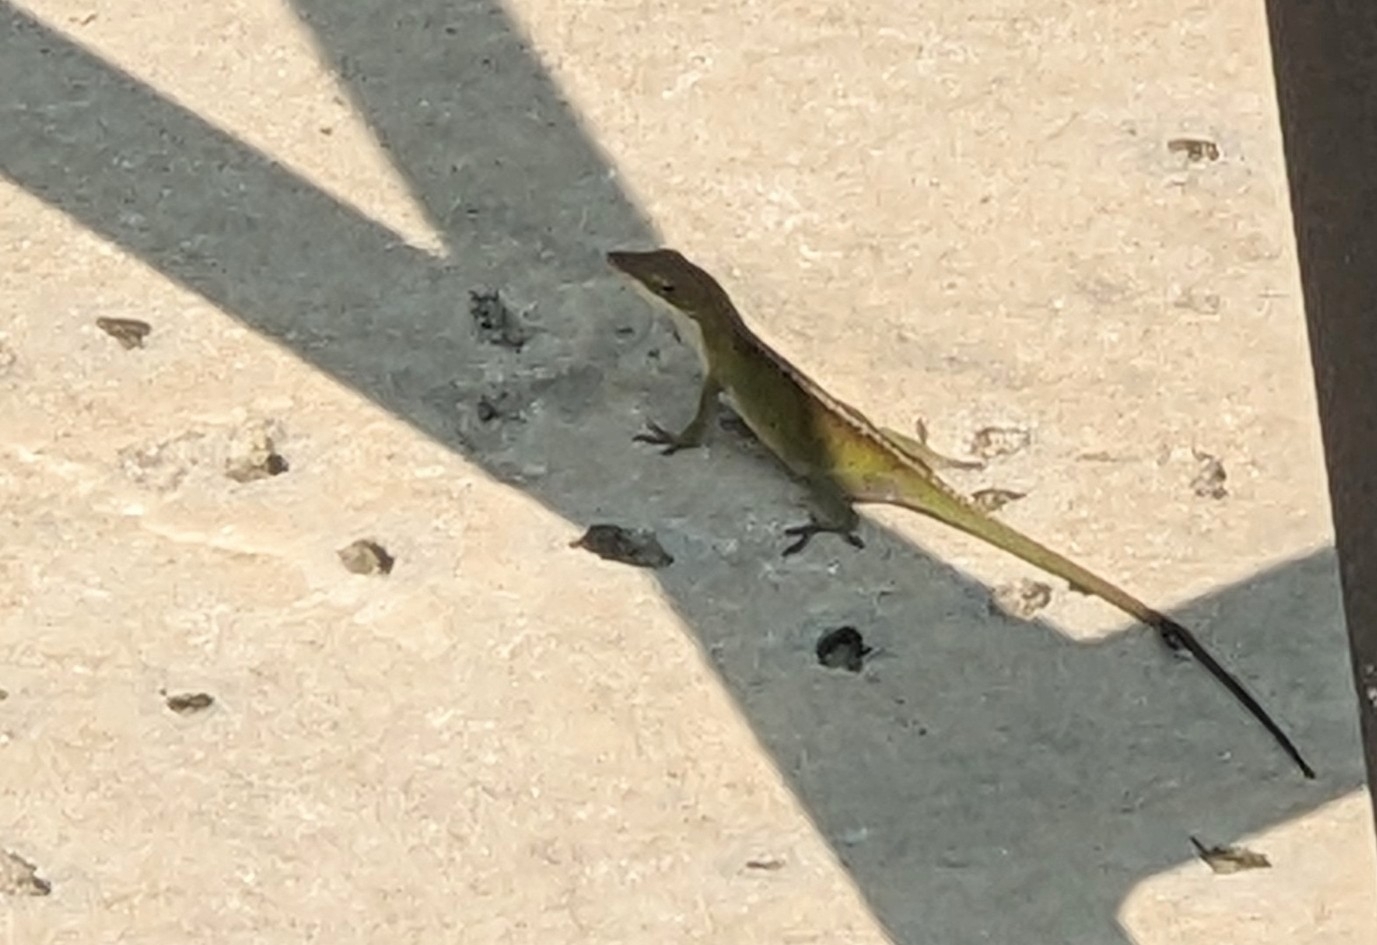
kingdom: Animalia
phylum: Chordata
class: Squamata
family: Dactyloidae
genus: Anolis
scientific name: Anolis carolinensis
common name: Green anole
